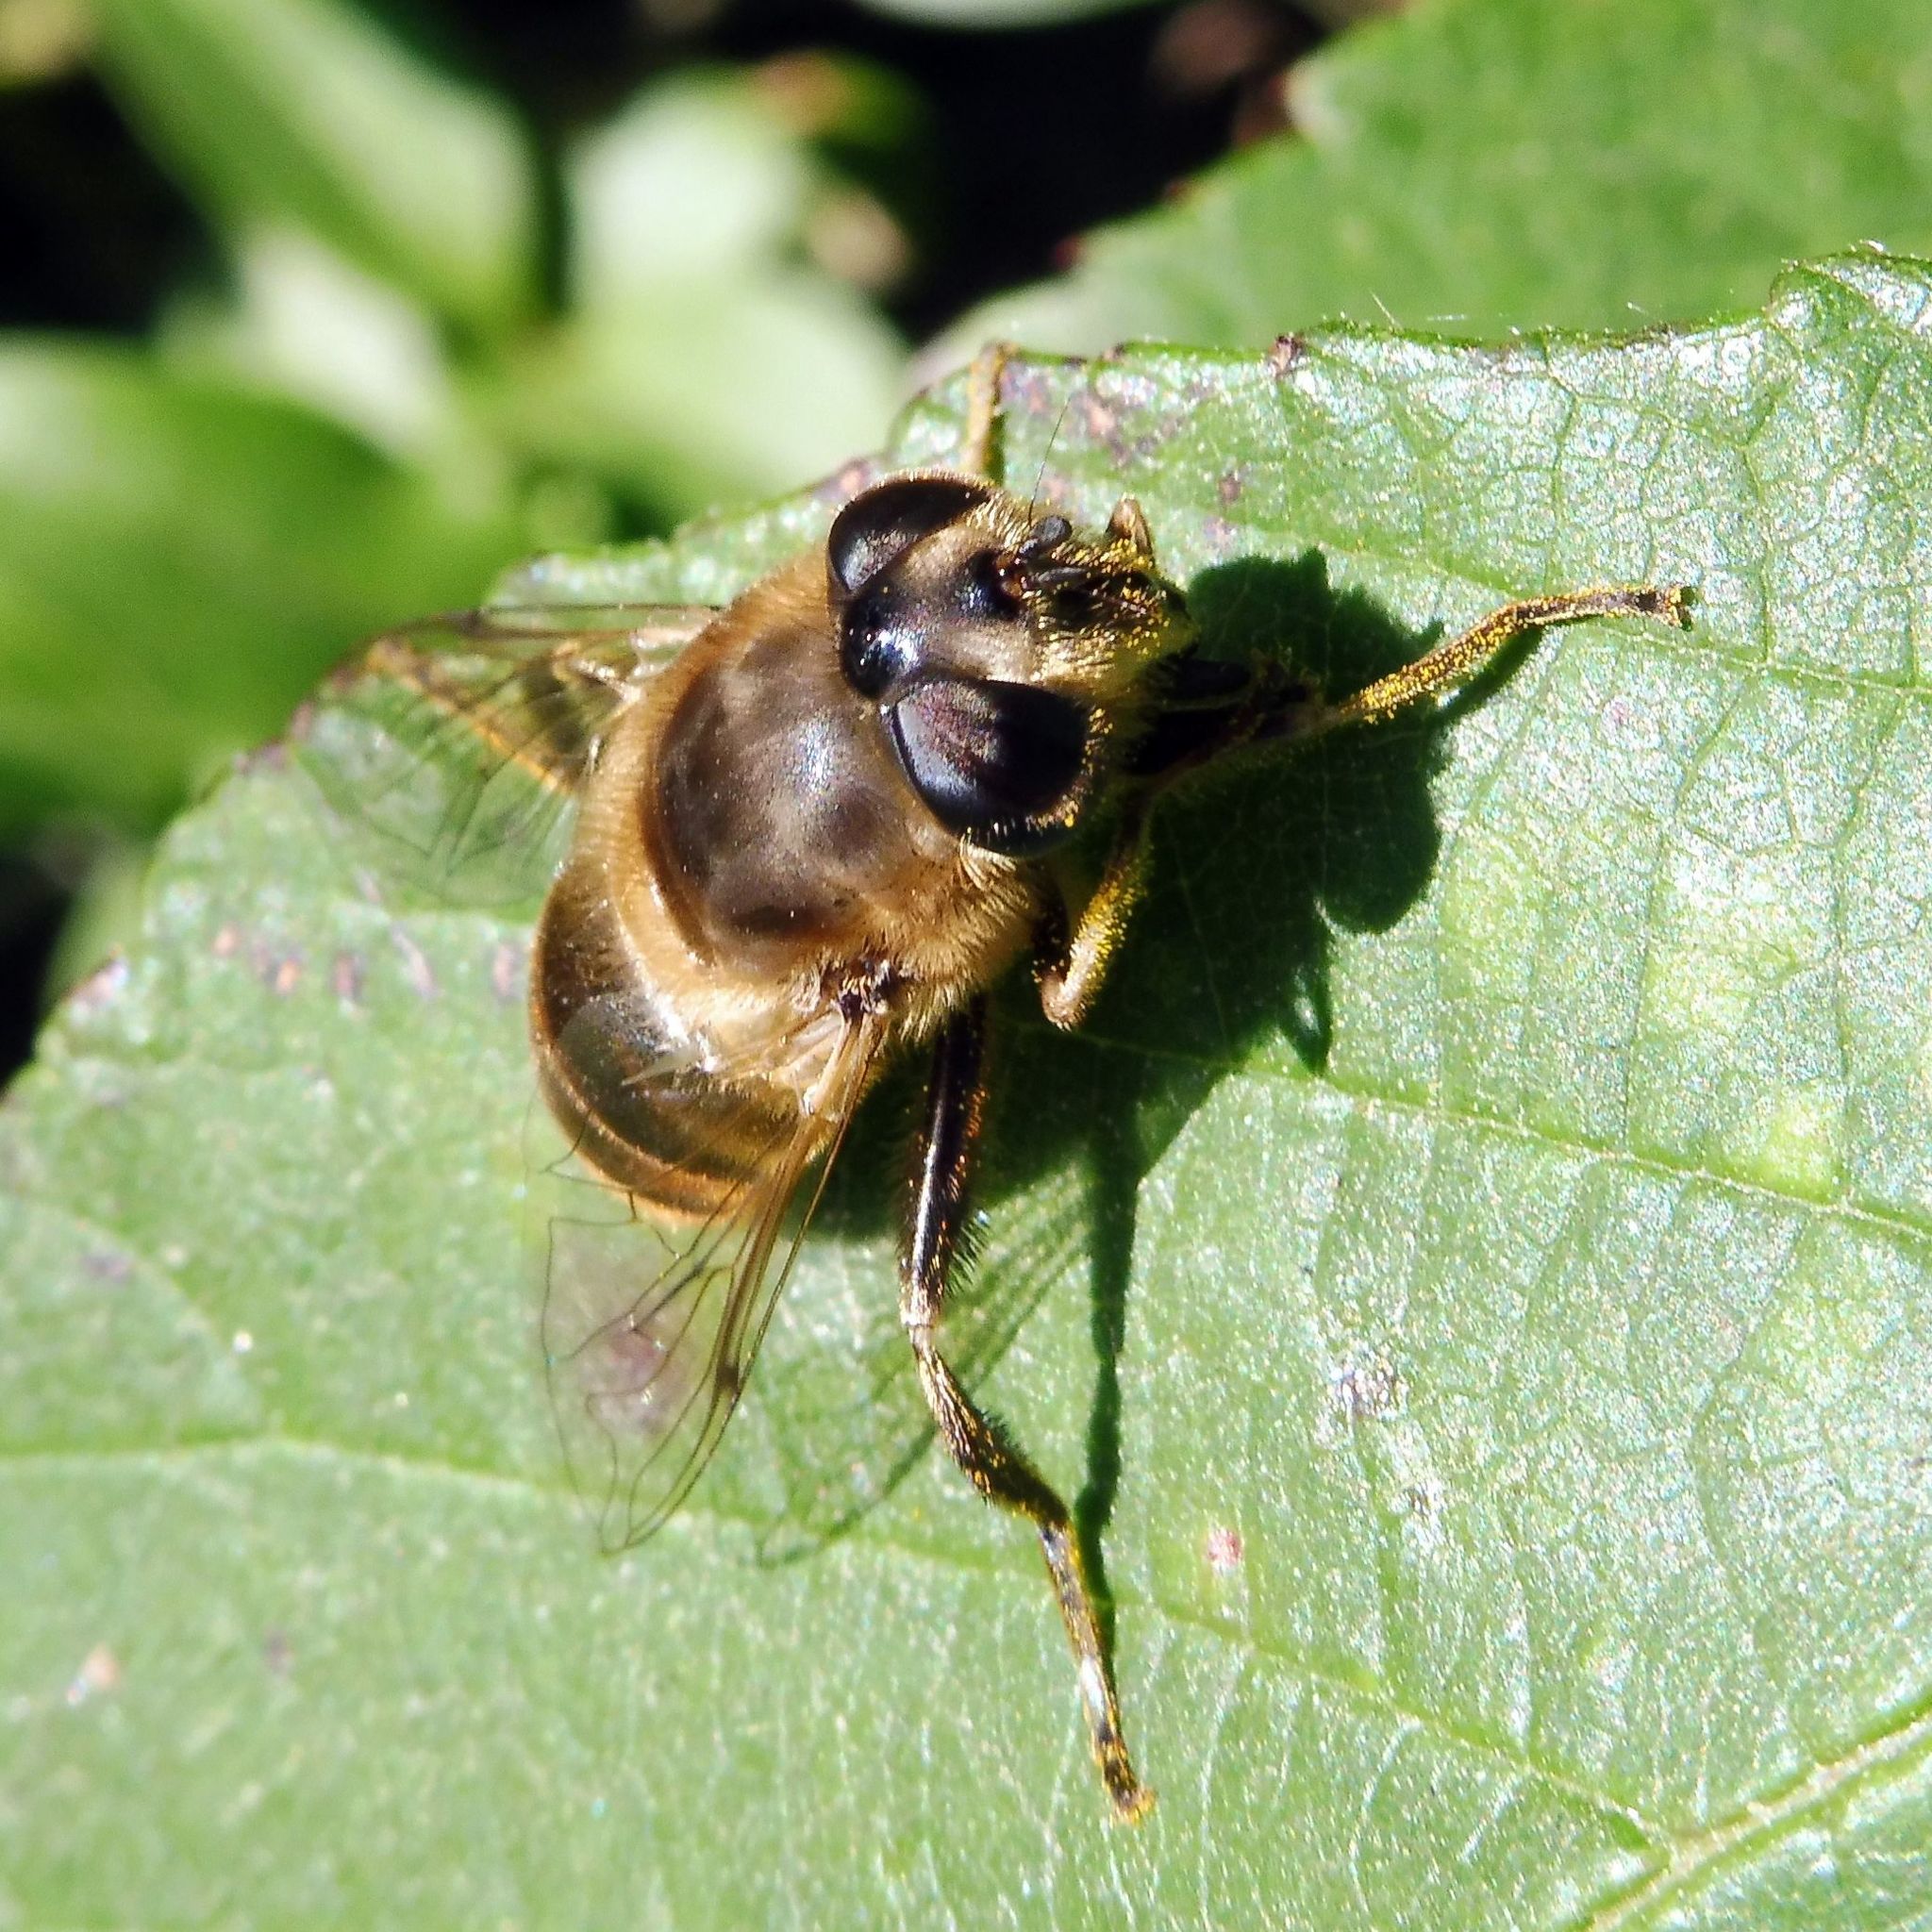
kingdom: Animalia
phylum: Arthropoda
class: Insecta
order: Diptera
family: Syrphidae
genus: Eristalis
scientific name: Eristalis tenax
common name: Drone fly
